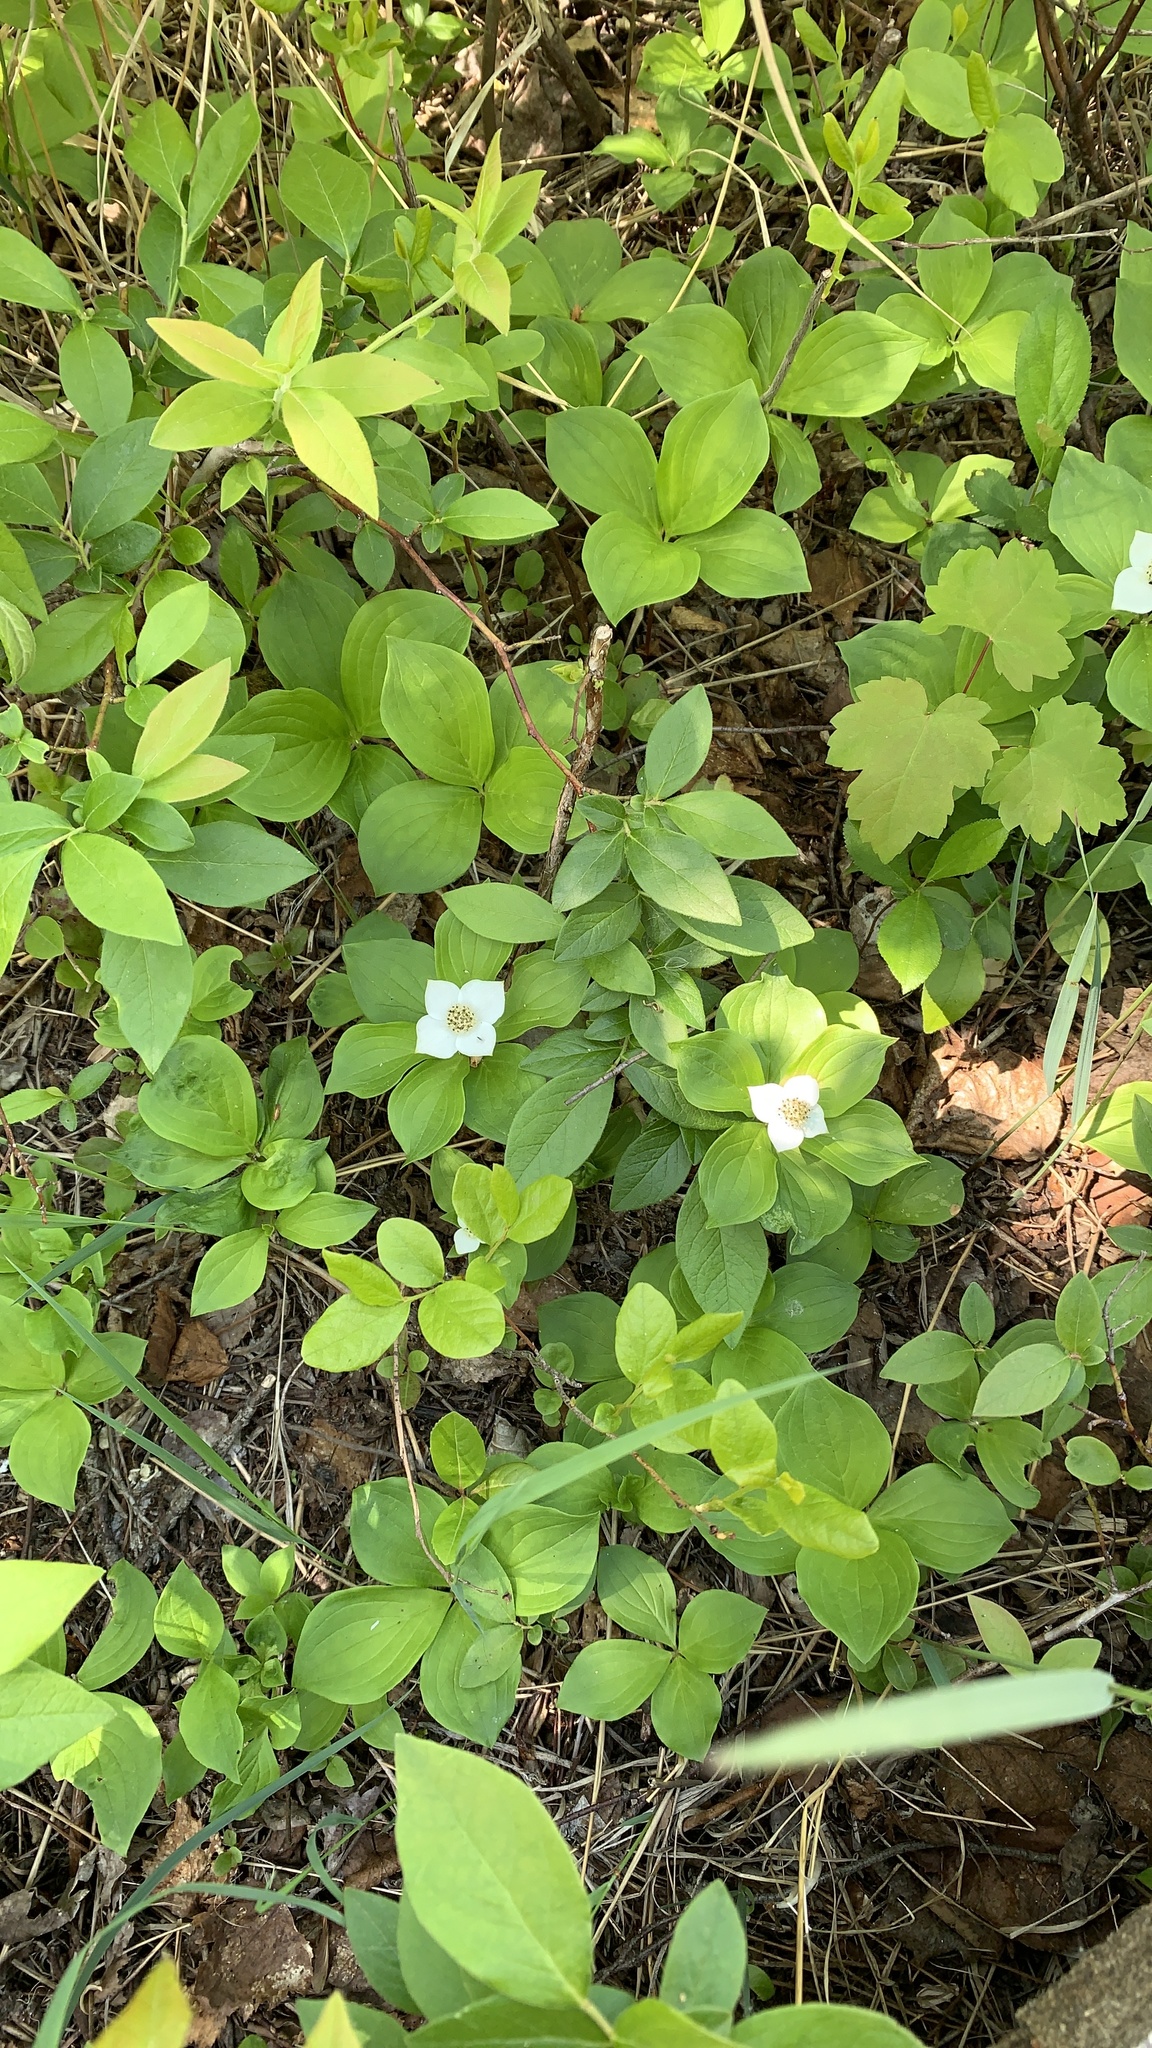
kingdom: Plantae
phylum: Tracheophyta
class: Magnoliopsida
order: Cornales
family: Cornaceae
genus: Cornus
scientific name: Cornus canadensis
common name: Creeping dogwood
